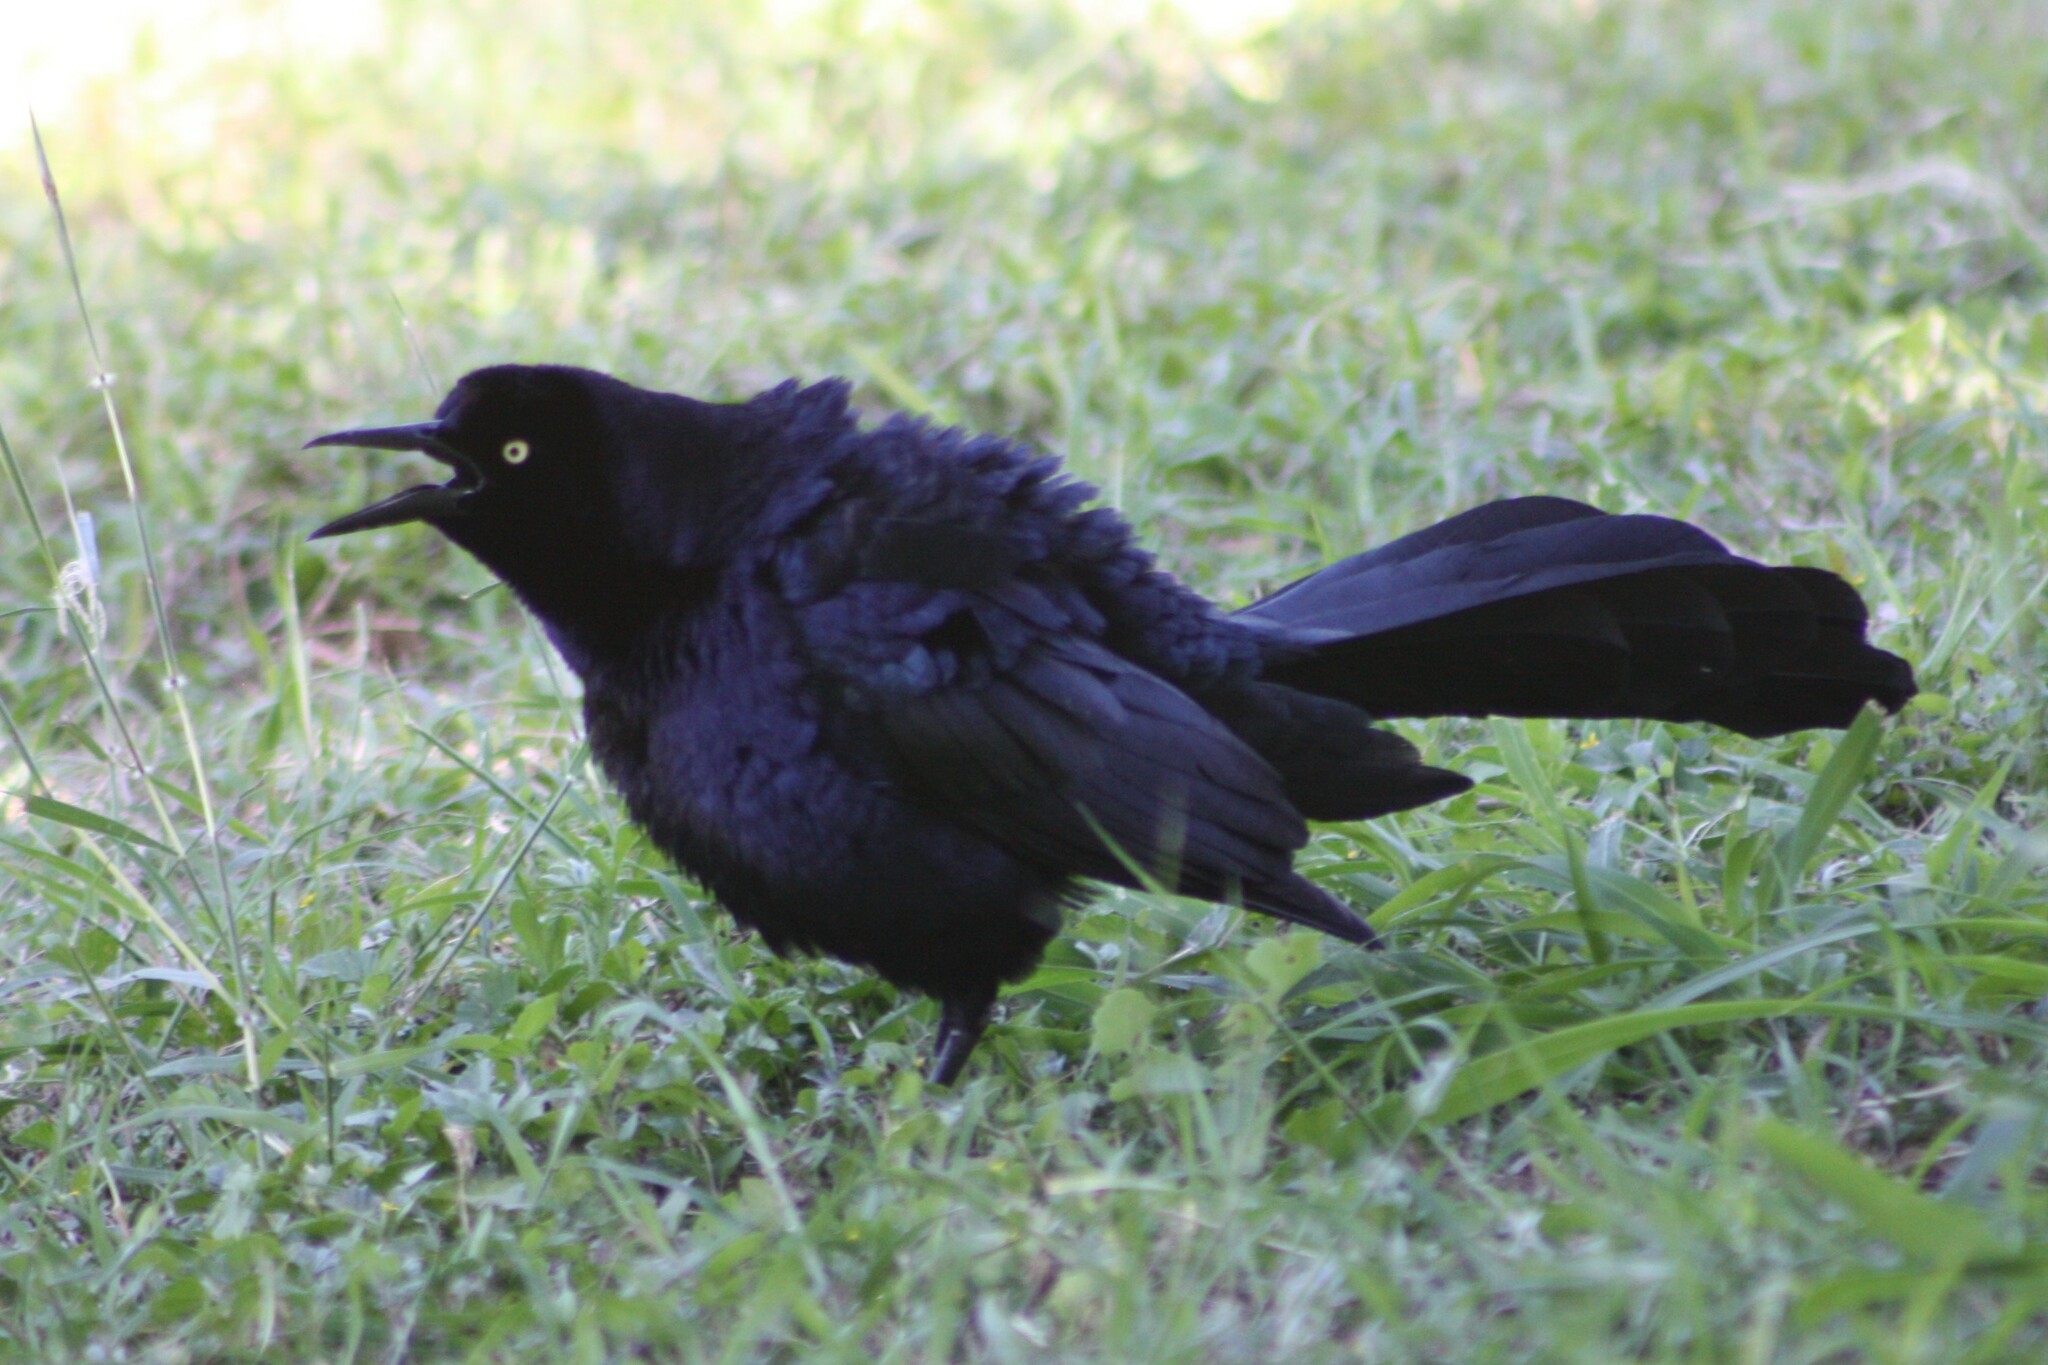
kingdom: Animalia
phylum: Chordata
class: Aves
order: Passeriformes
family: Icteridae
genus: Quiscalus
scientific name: Quiscalus mexicanus
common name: Great-tailed grackle
